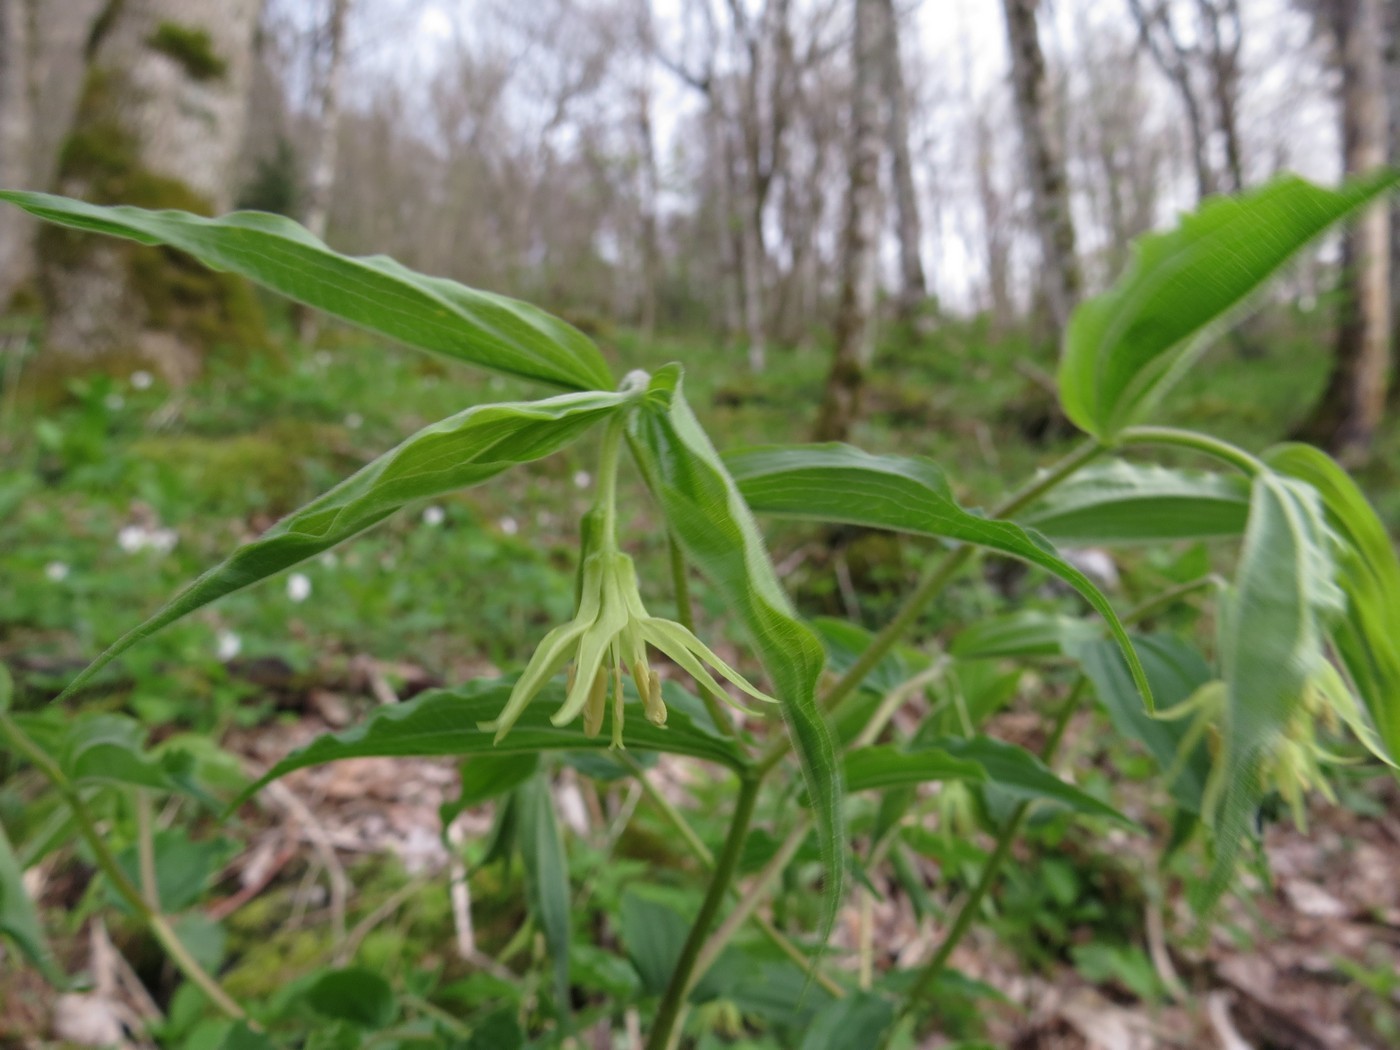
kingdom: Plantae
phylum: Tracheophyta
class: Liliopsida
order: Liliales
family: Liliaceae
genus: Prosartes
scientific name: Prosartes lanuginosa
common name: Hairy mandarin
